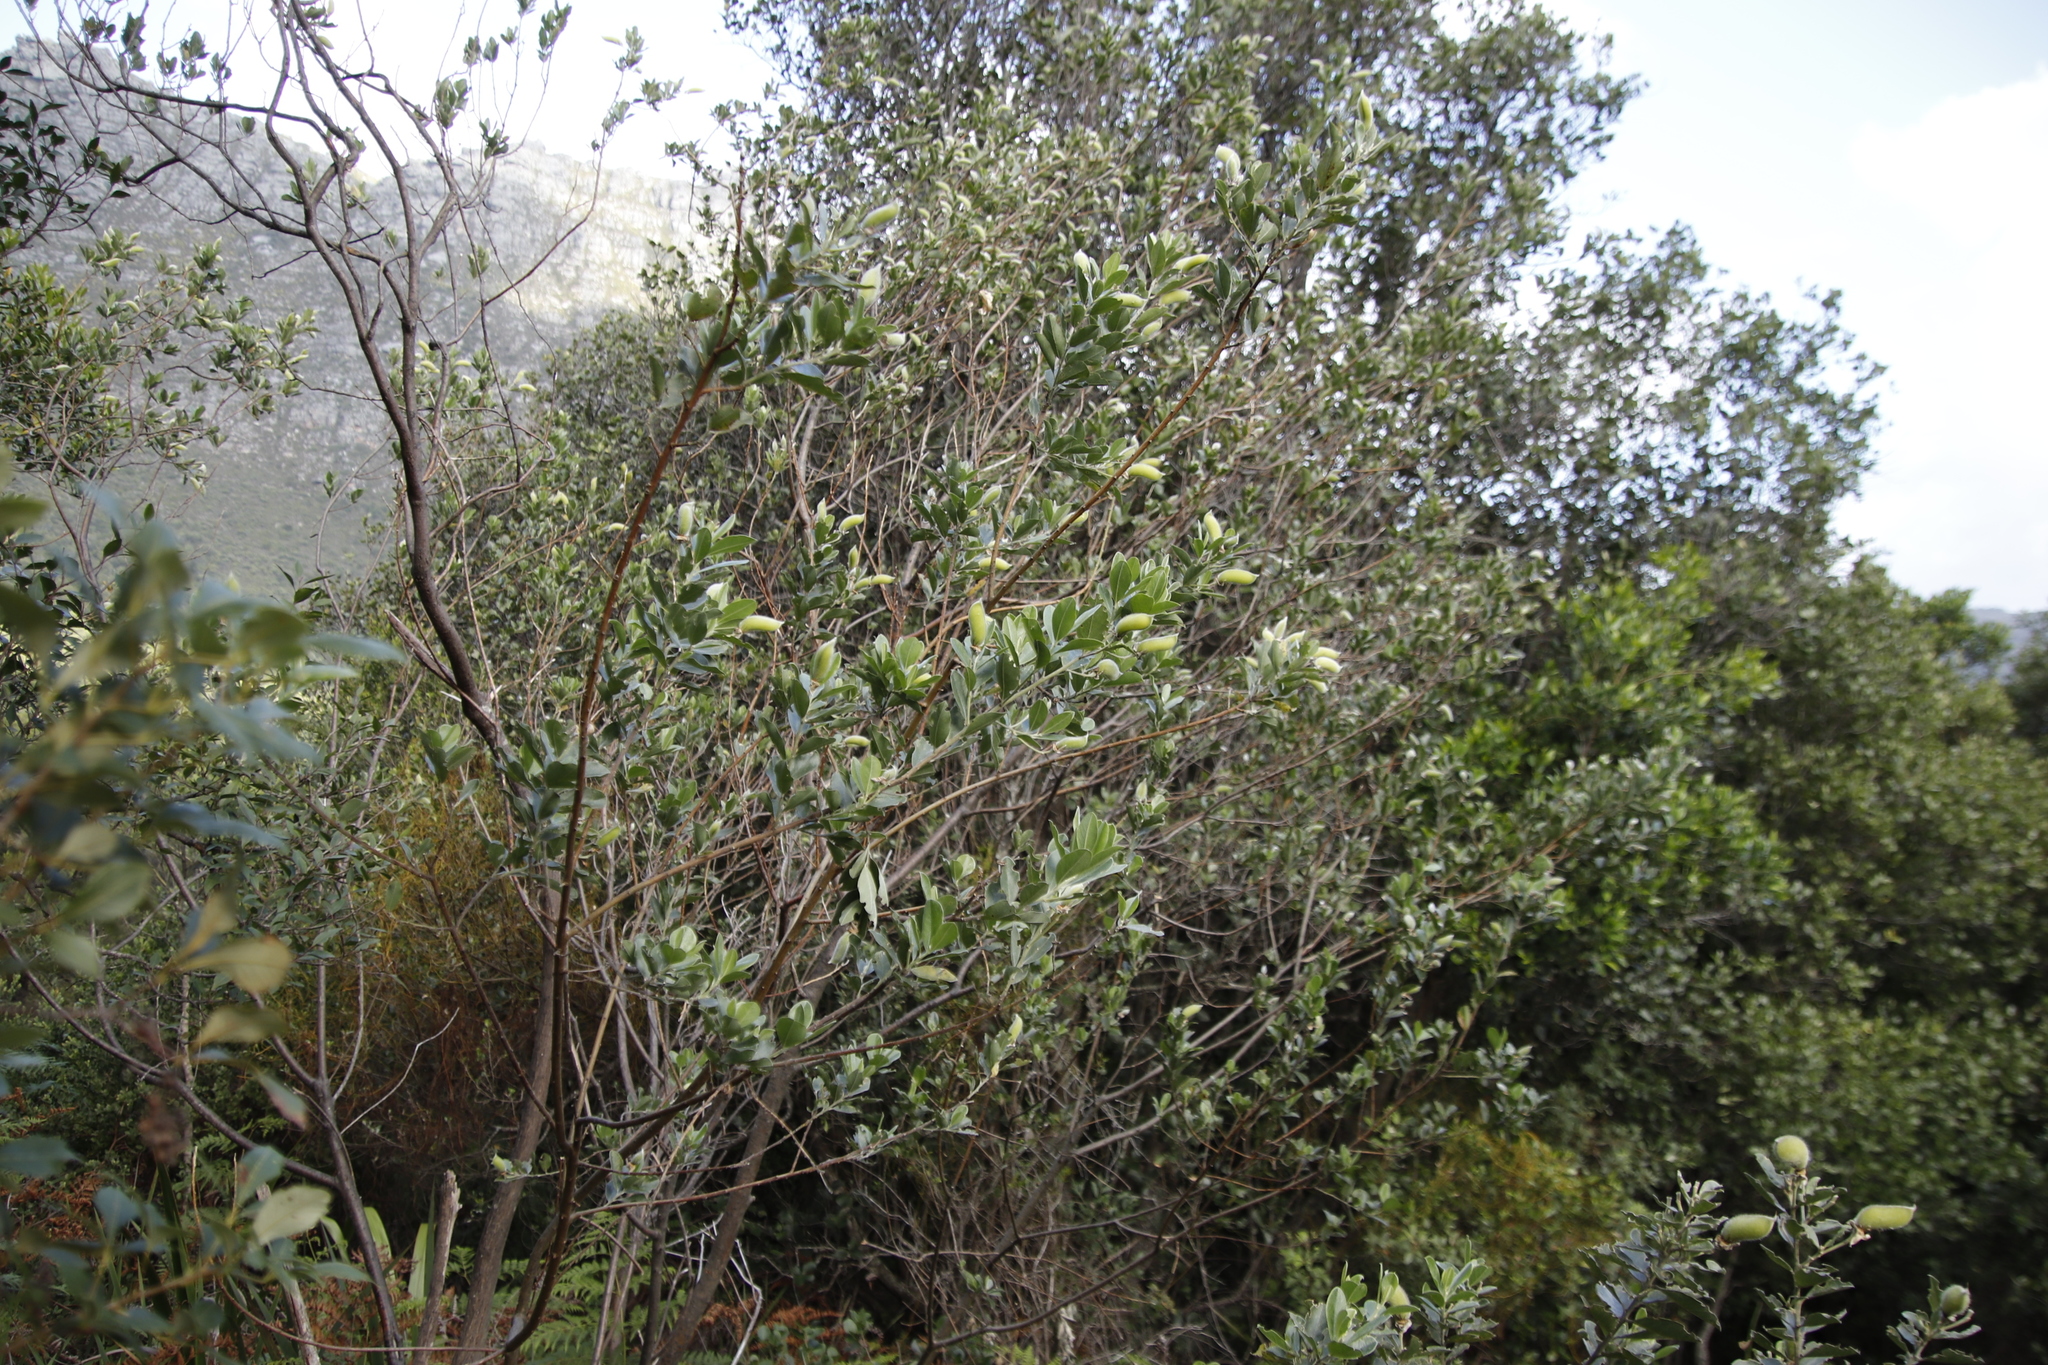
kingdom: Plantae
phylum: Tracheophyta
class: Magnoliopsida
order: Fabales
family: Fabaceae
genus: Podalyria
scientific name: Podalyria calyptrata
